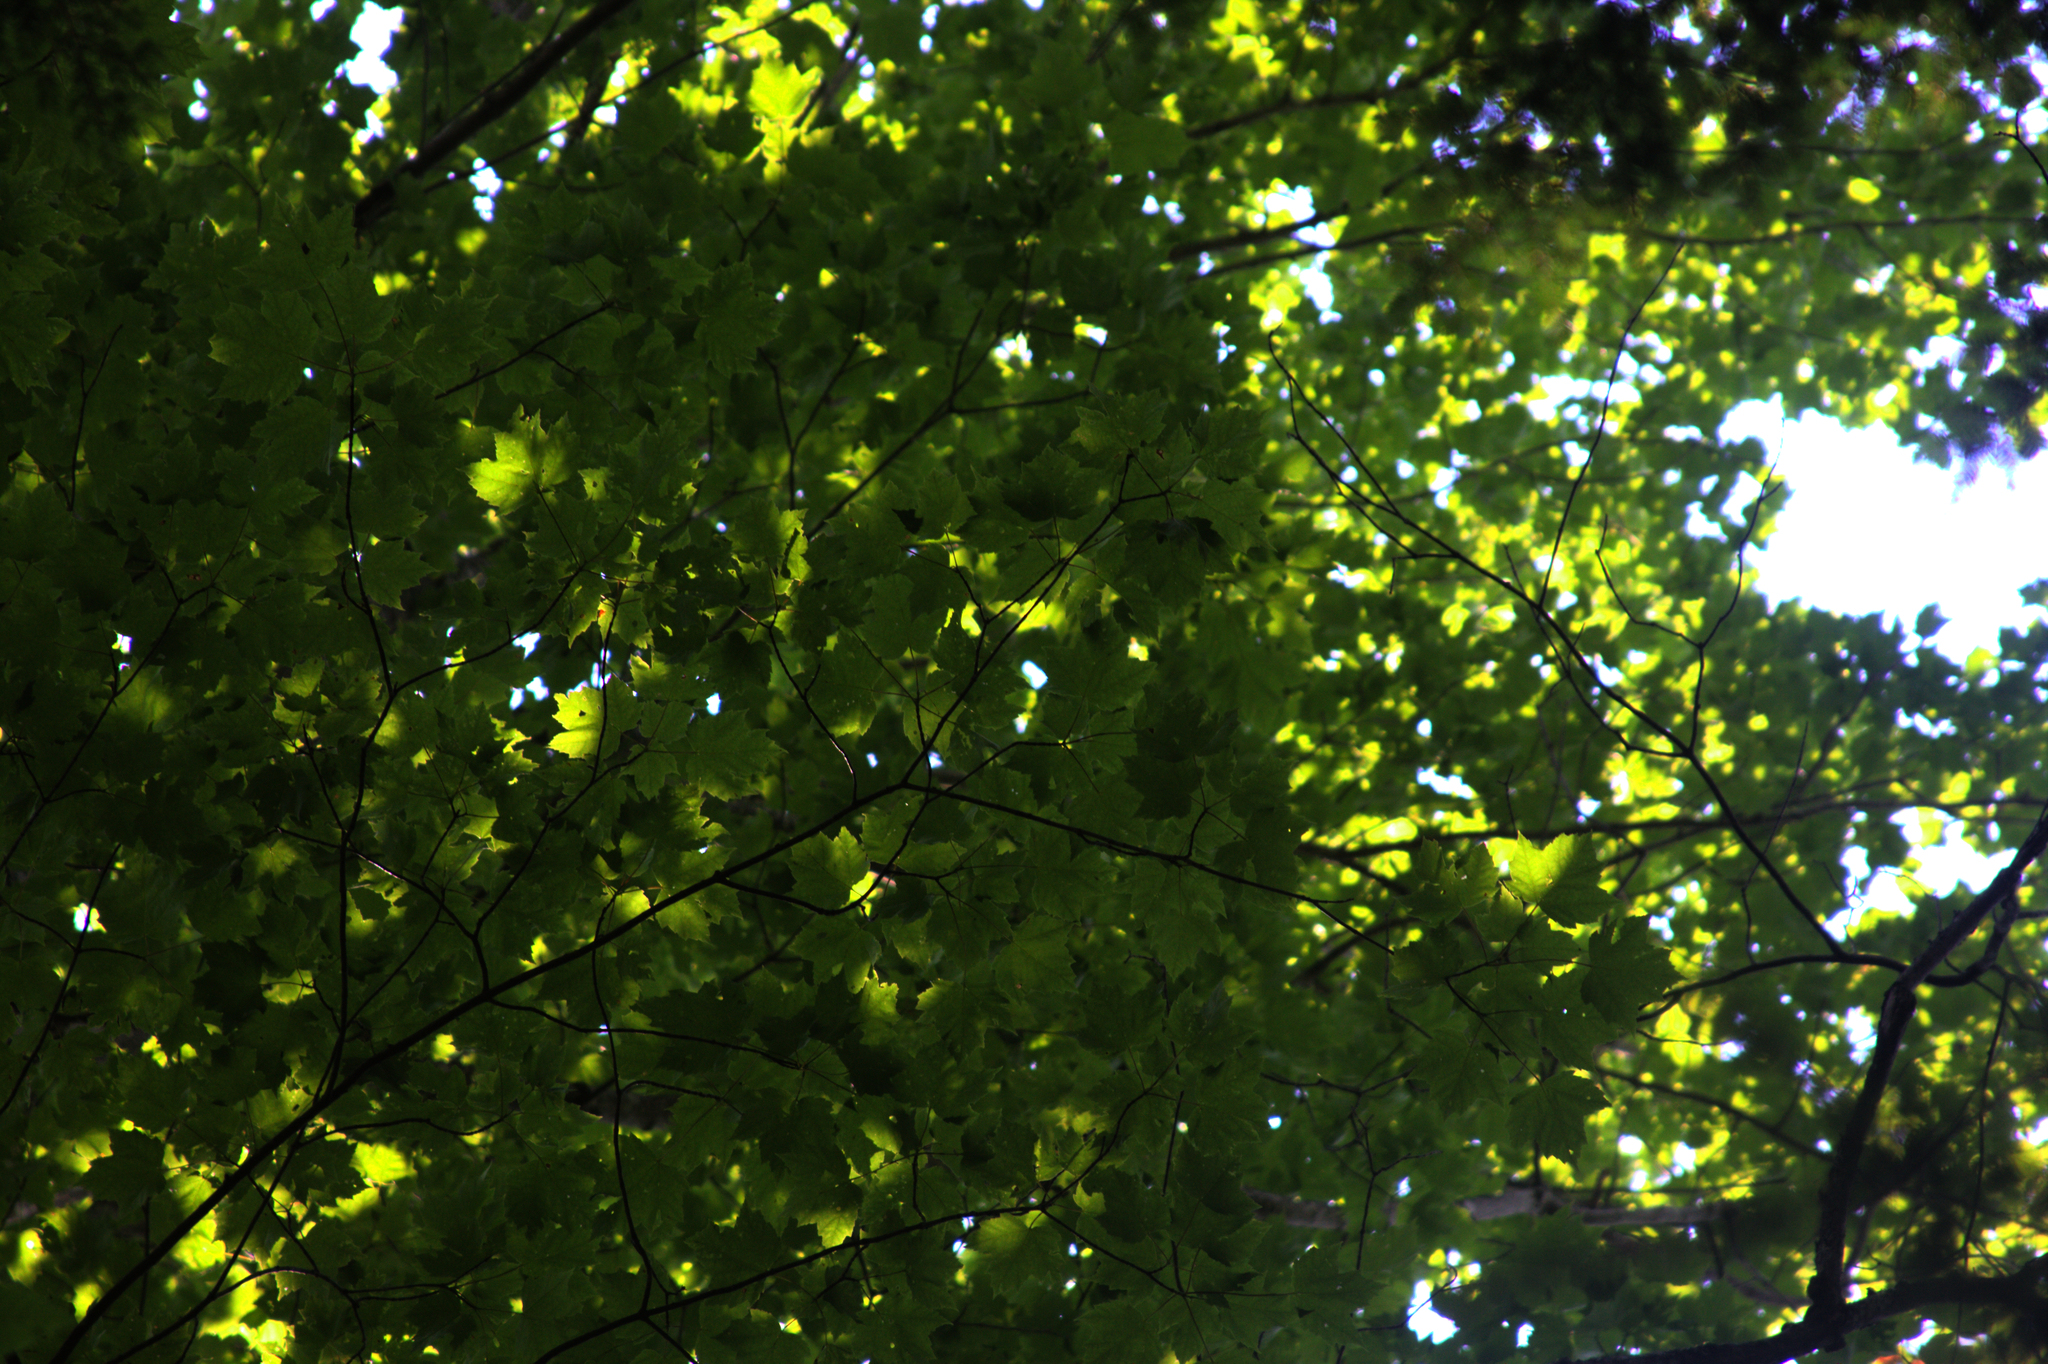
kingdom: Plantae
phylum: Tracheophyta
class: Magnoliopsida
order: Sapindales
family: Sapindaceae
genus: Acer
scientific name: Acer rubrum
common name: Red maple
